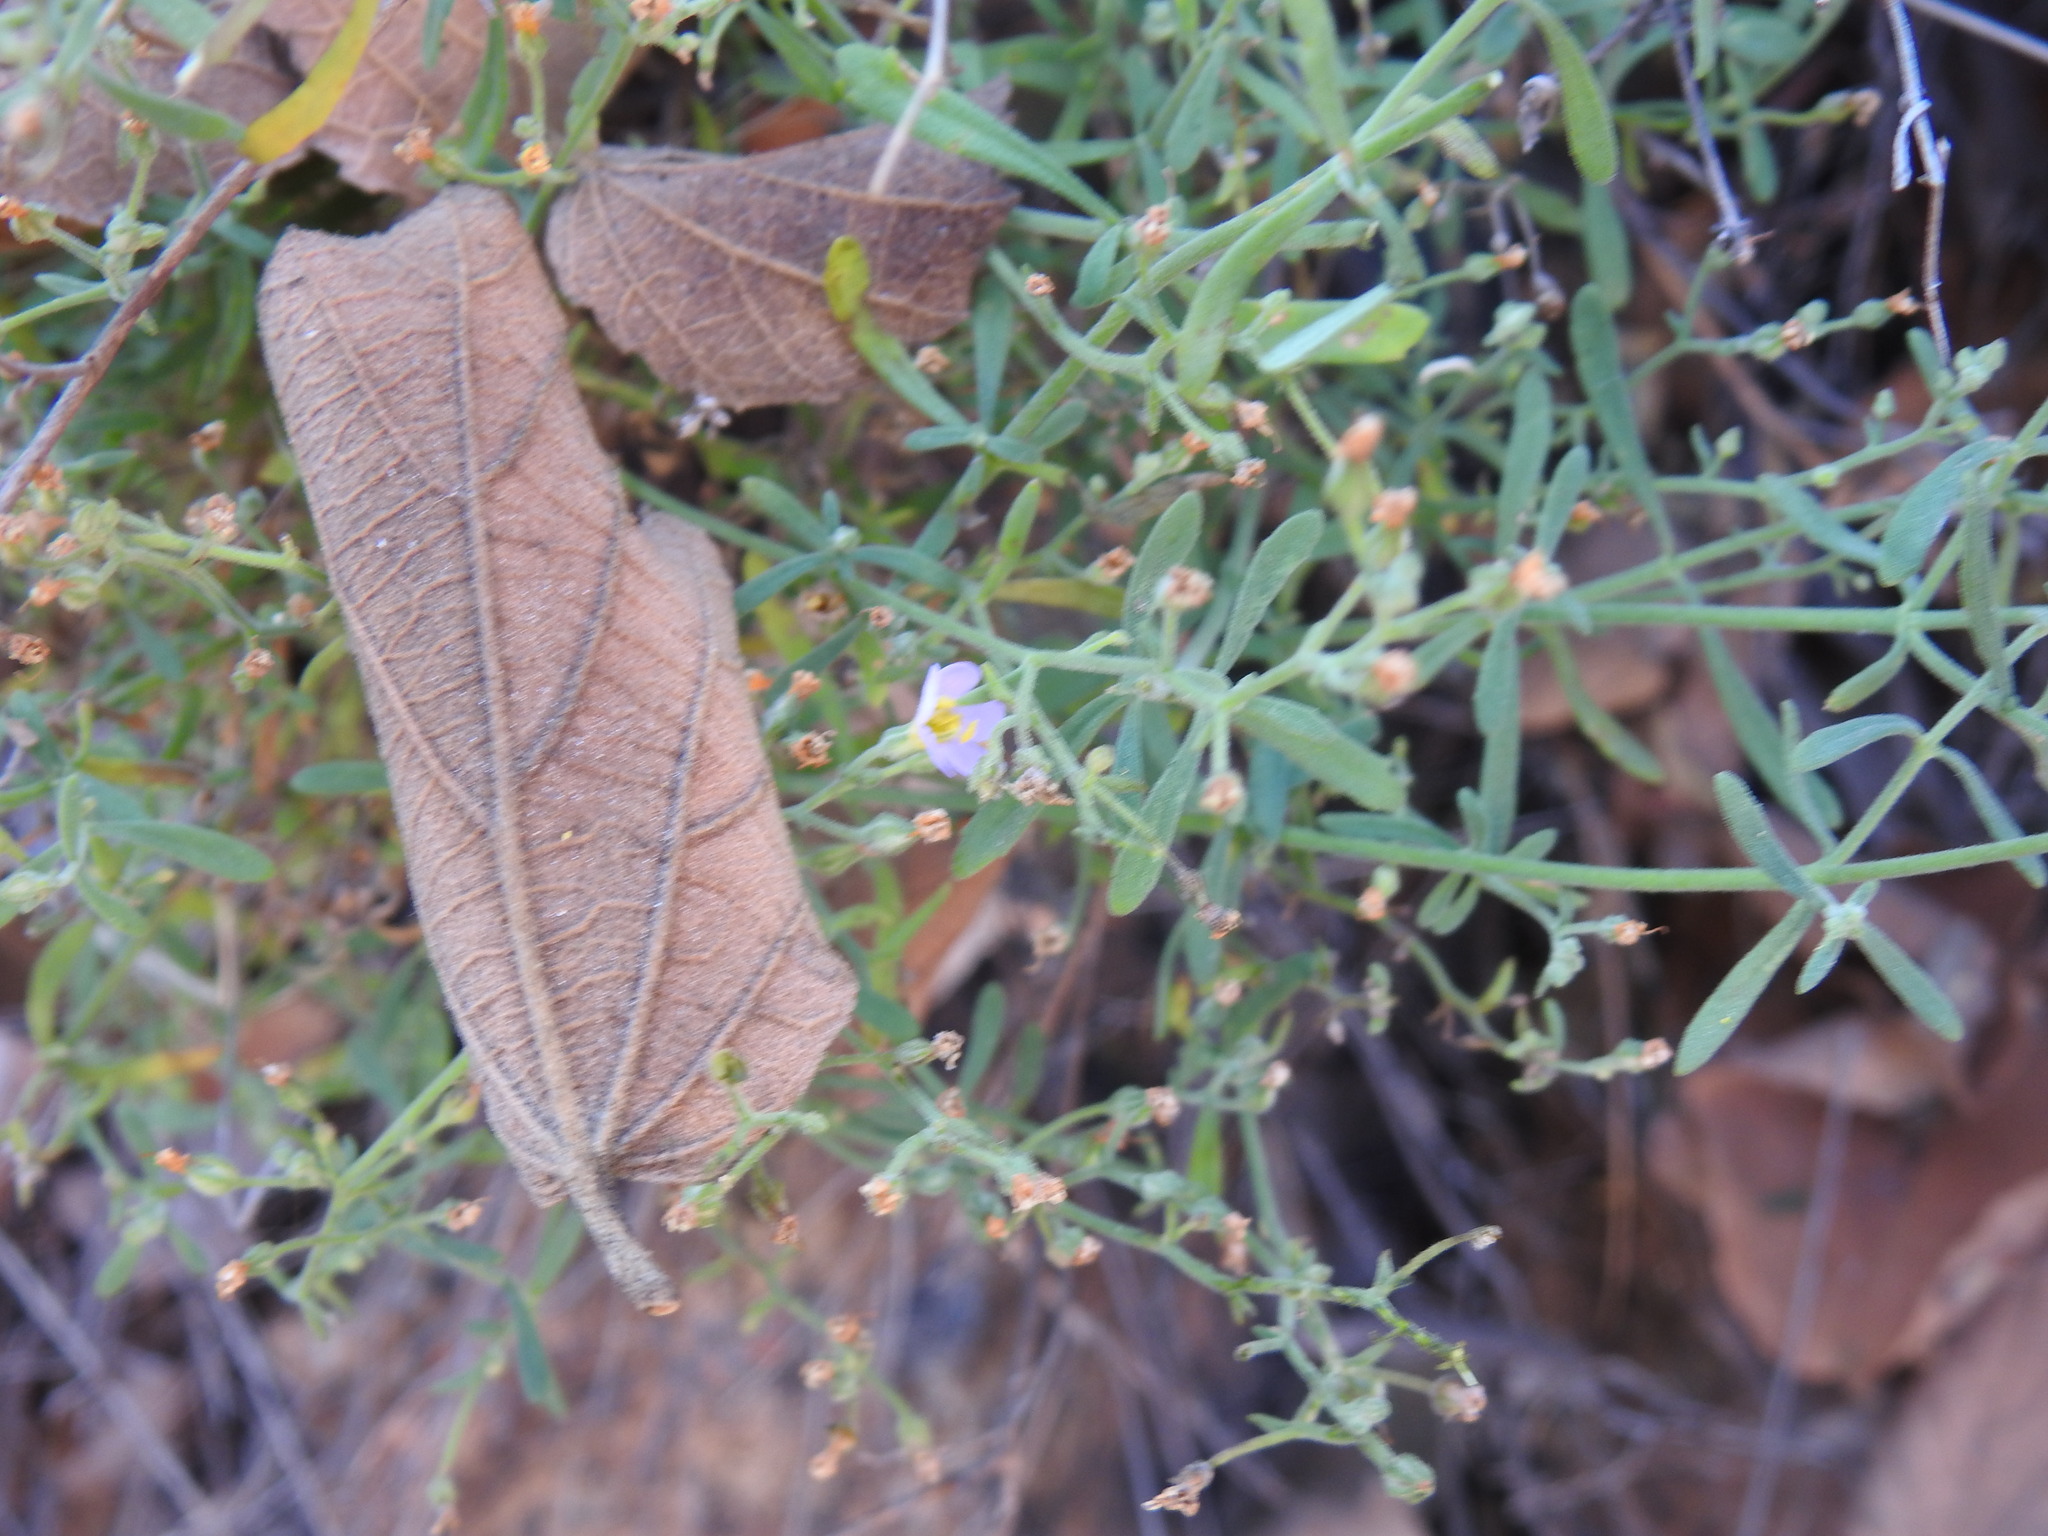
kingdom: Plantae
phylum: Tracheophyta
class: Magnoliopsida
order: Lamiales
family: Scrophulariaceae
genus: Chaenostoma
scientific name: Chaenostoma leve
